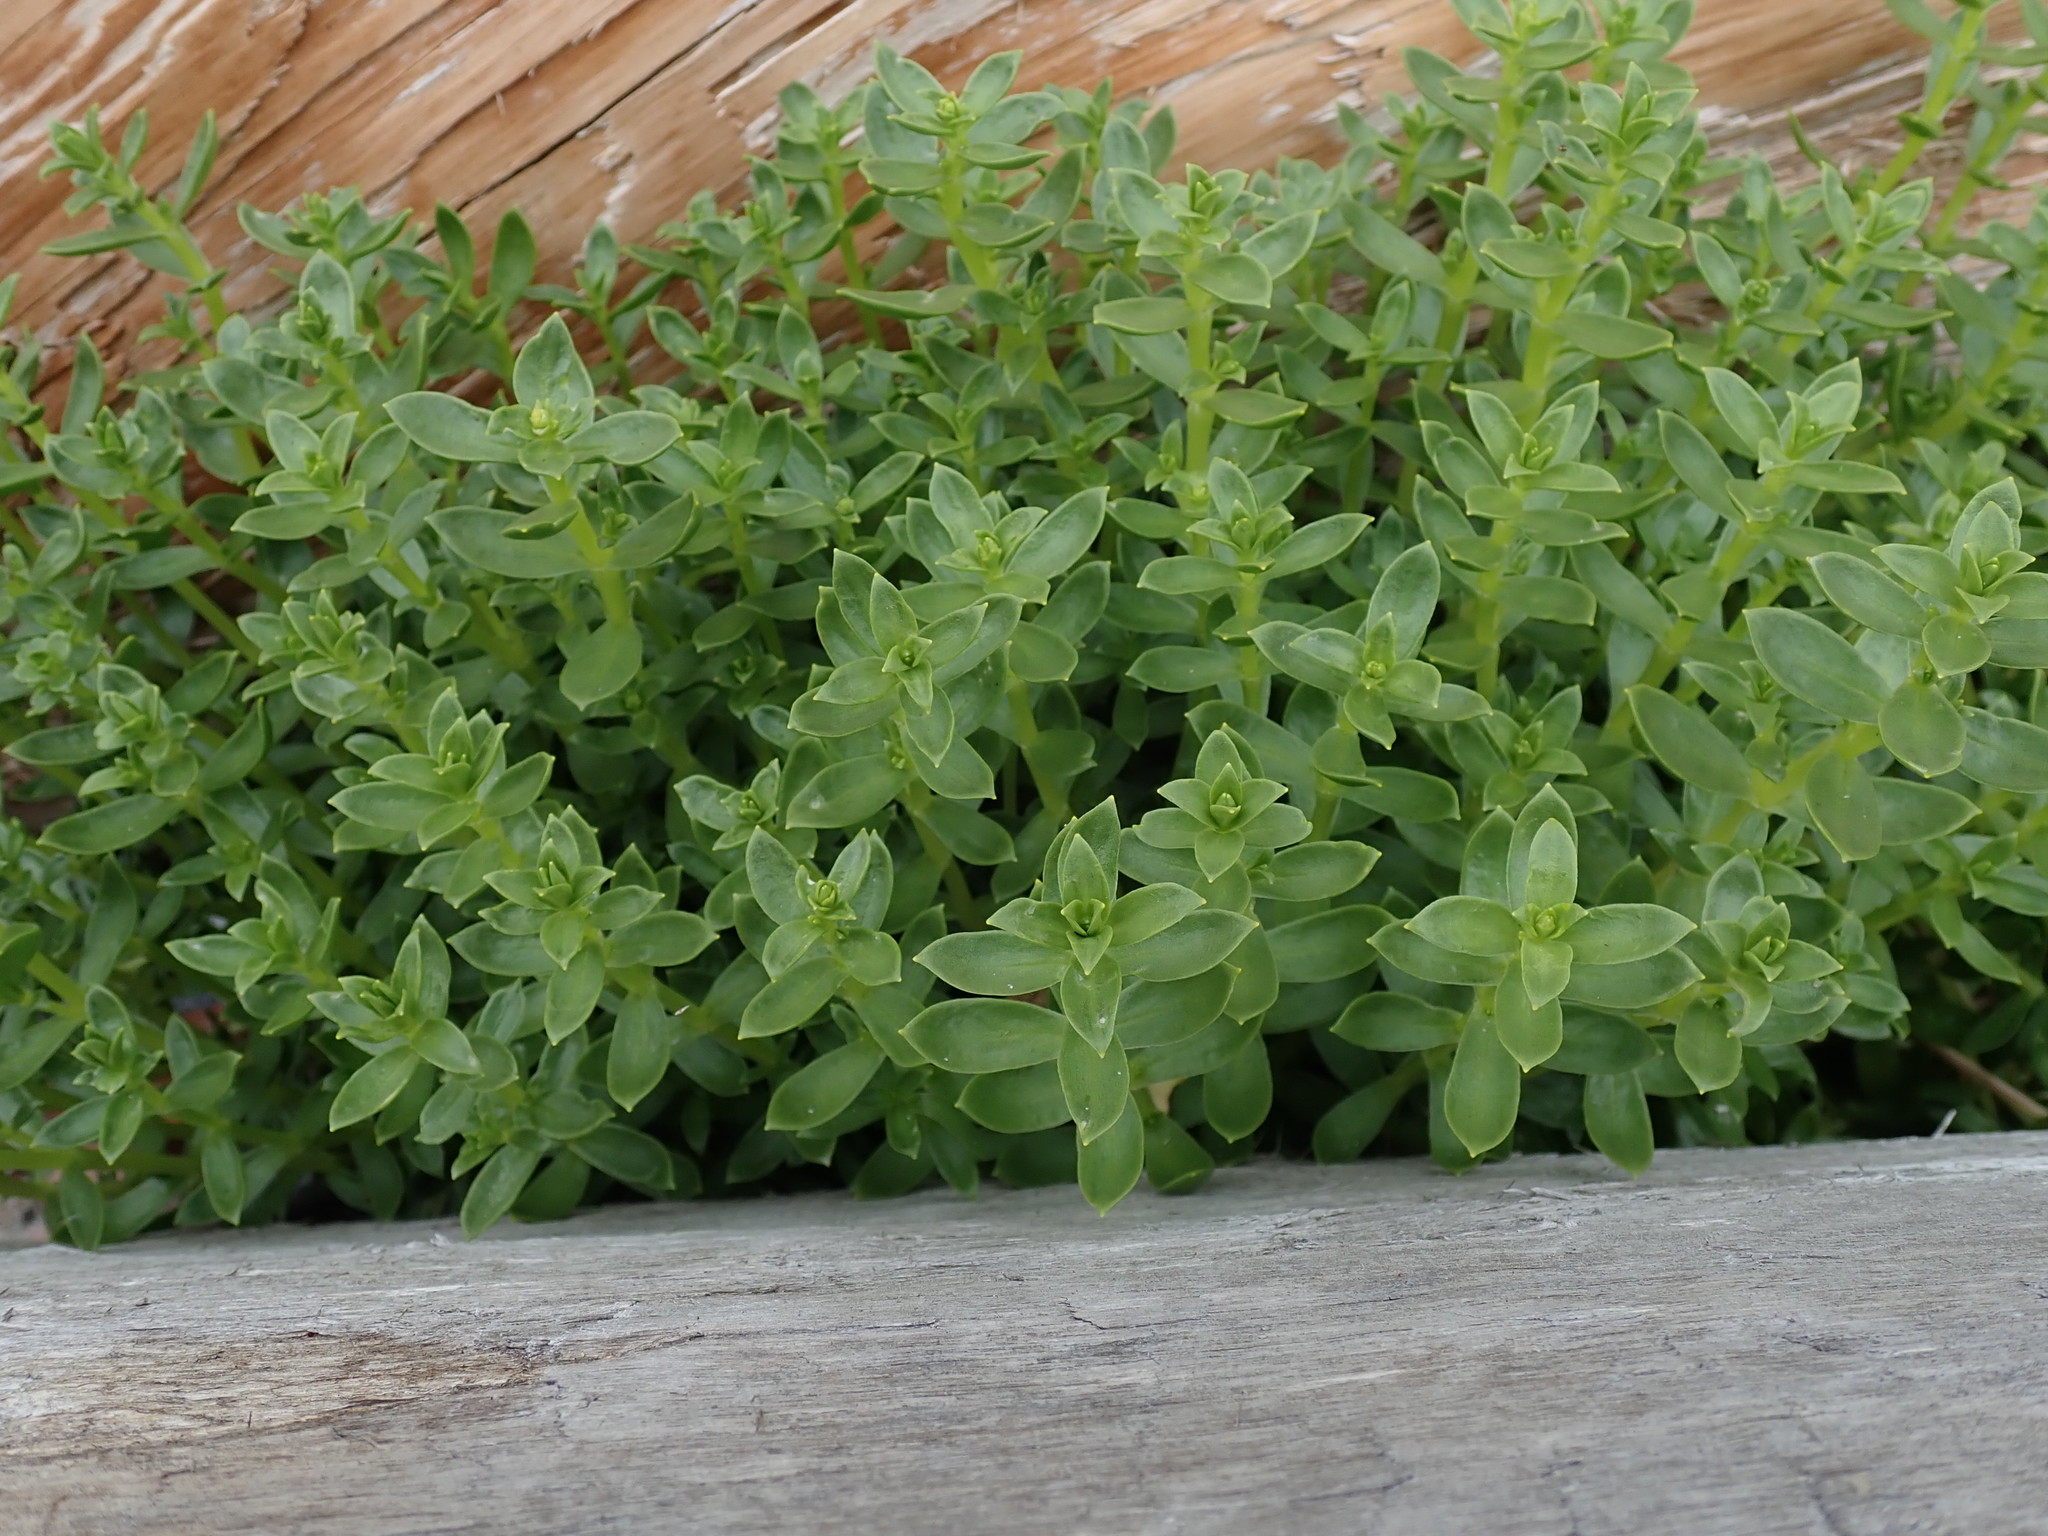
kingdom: Plantae
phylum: Tracheophyta
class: Magnoliopsida
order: Caryophyllales
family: Caryophyllaceae
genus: Honckenya
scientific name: Honckenya peploides
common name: Sea sandwort
